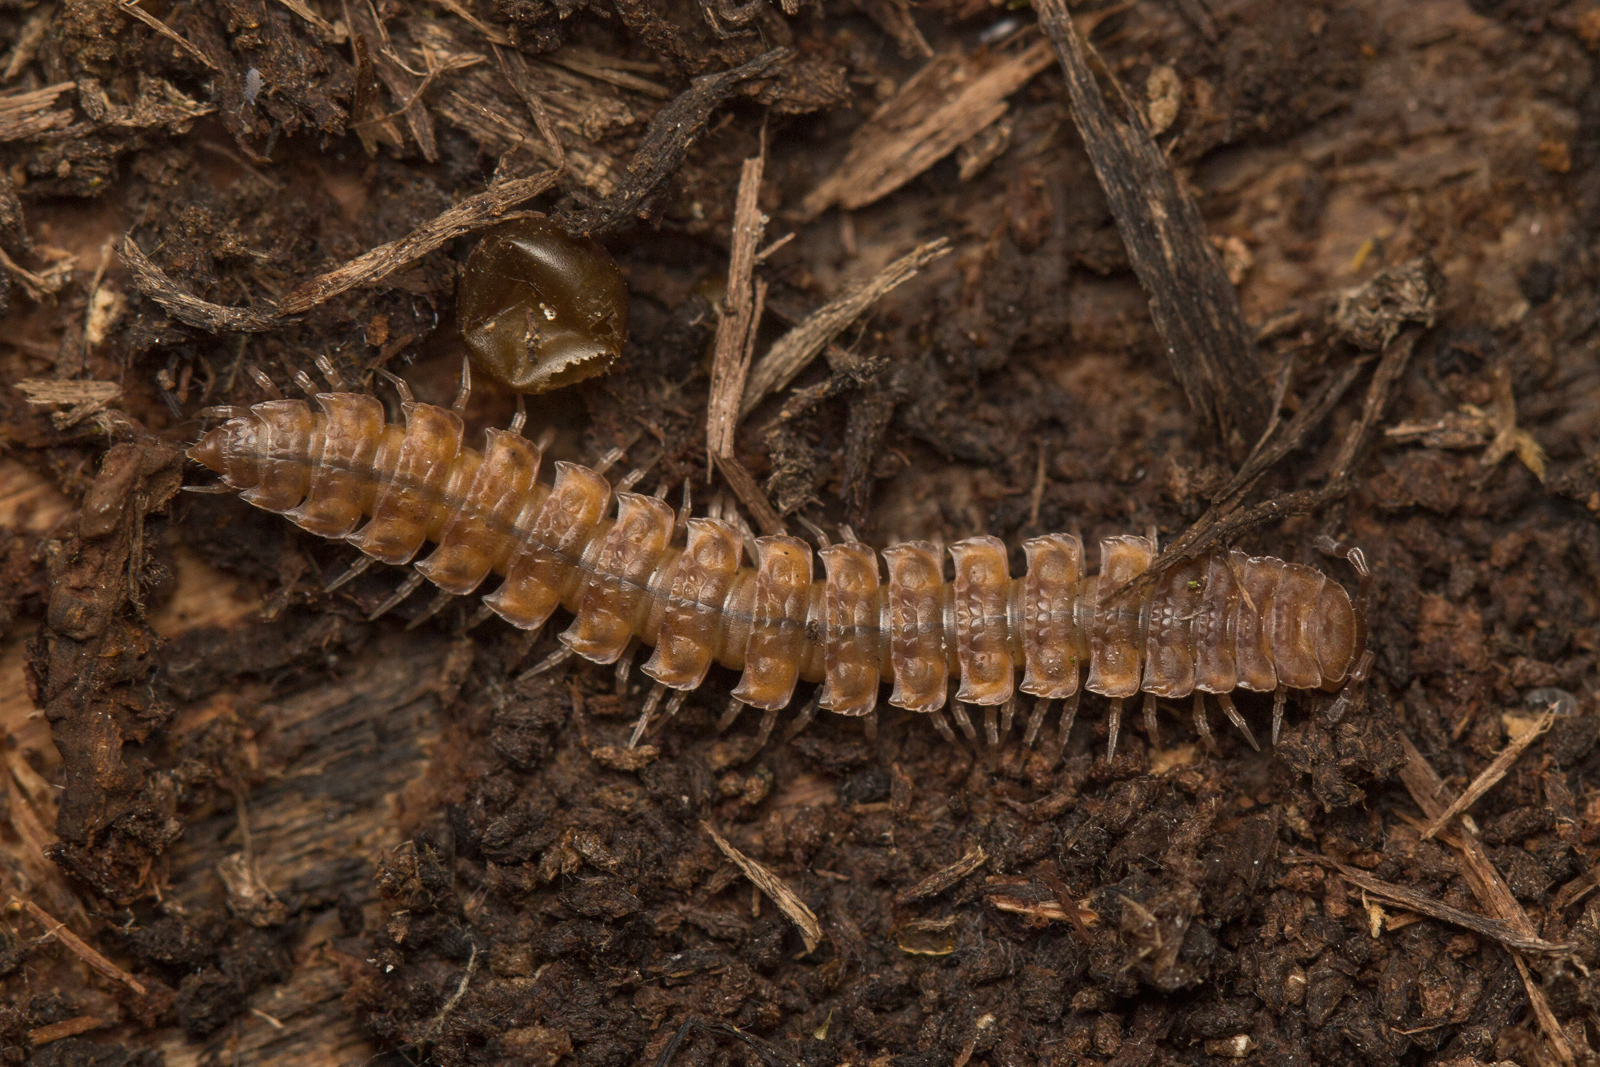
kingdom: Animalia
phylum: Arthropoda
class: Diplopoda
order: Polydesmida
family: Polydesmidae
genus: Polydesmus
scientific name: Polydesmus complanatus
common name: Flat-backed millipede
